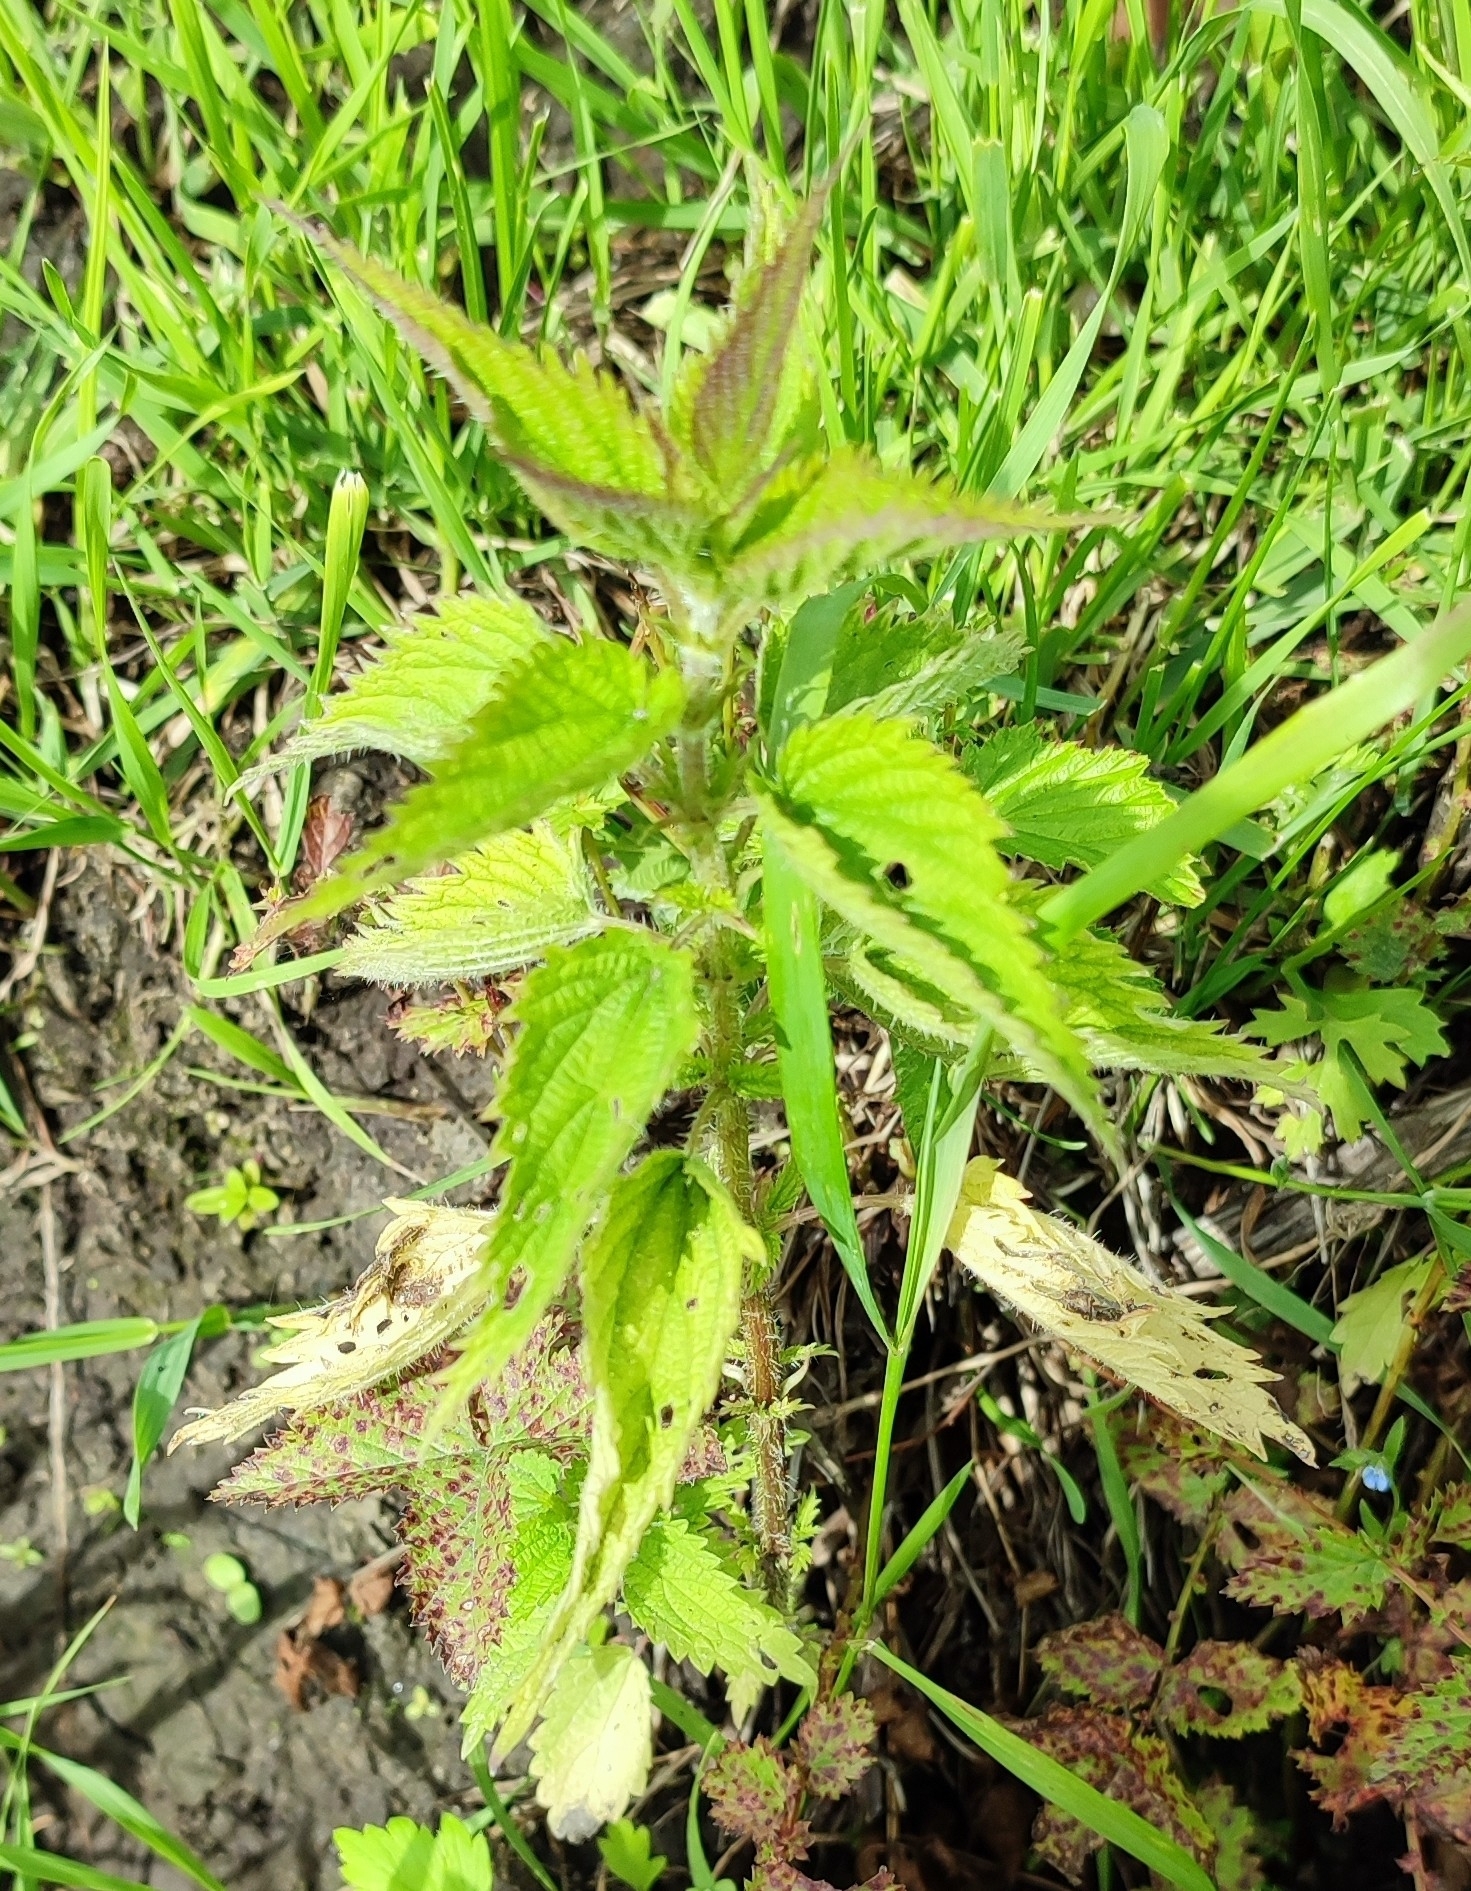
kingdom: Plantae
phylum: Tracheophyta
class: Magnoliopsida
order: Rosales
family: Urticaceae
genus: Urtica
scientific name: Urtica dioica
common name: Common nettle
